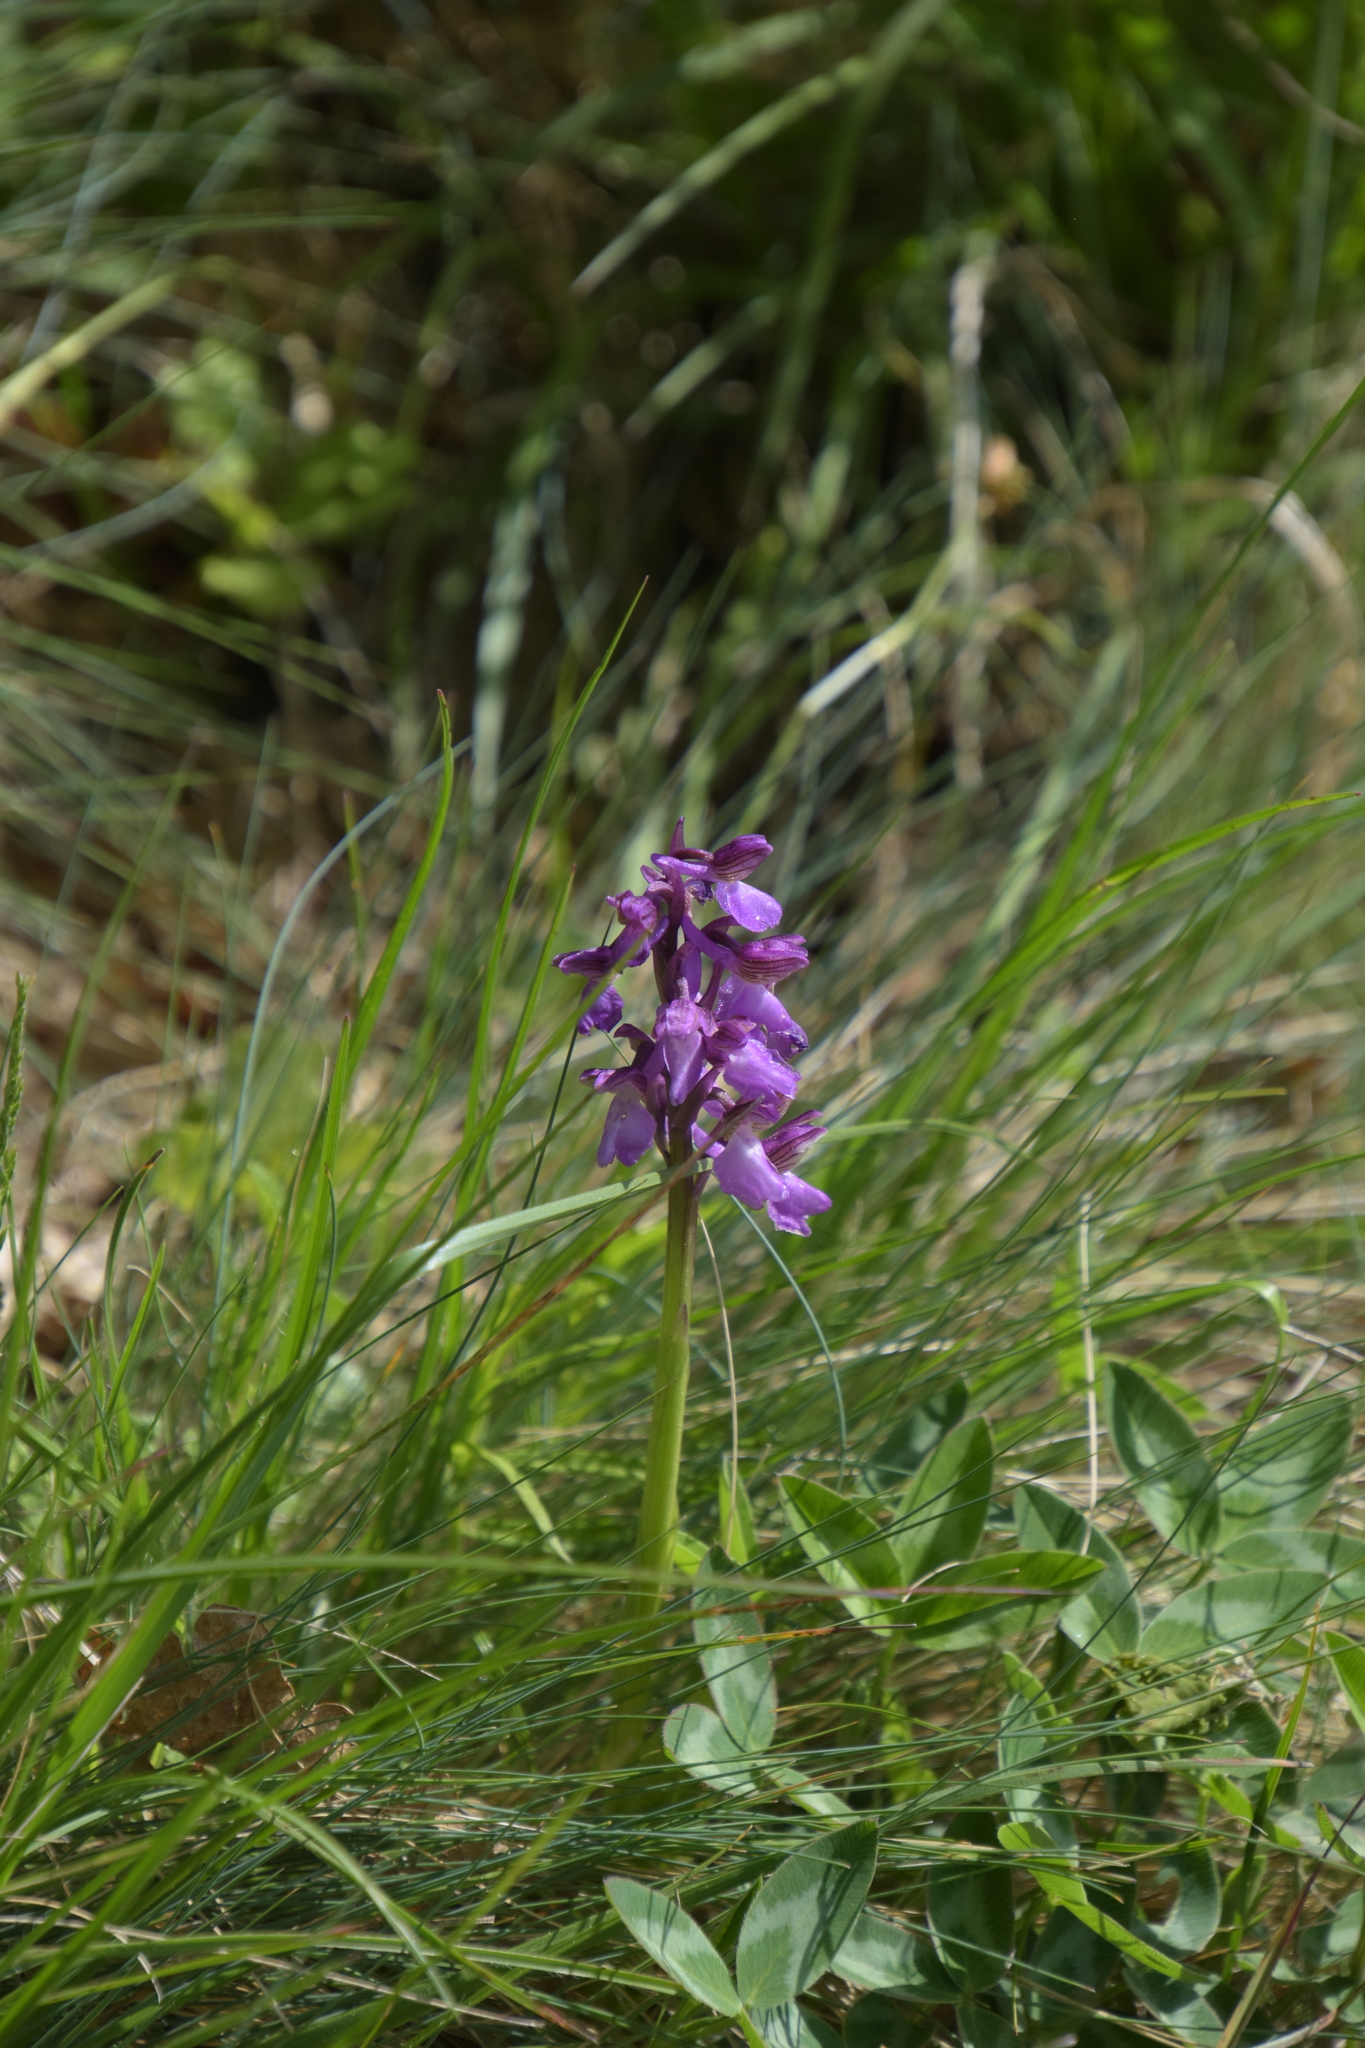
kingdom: Plantae
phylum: Tracheophyta
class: Liliopsida
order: Asparagales
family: Orchidaceae
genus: Anacamptis
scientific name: Anacamptis morio
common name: Green-winged orchid
